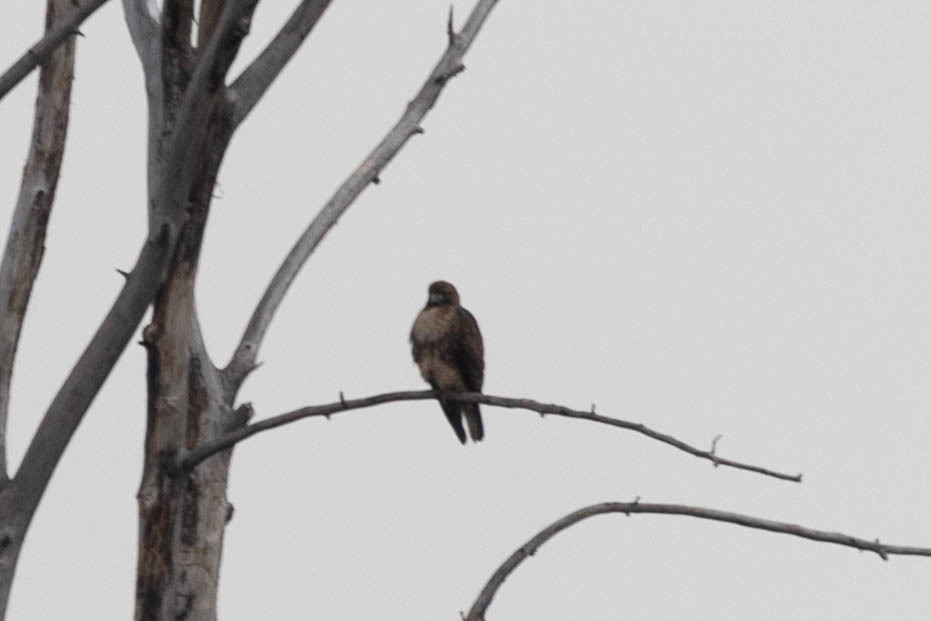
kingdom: Animalia
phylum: Chordata
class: Aves
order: Accipitriformes
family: Accipitridae
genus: Buteo
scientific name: Buteo jamaicensis
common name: Red-tailed hawk
